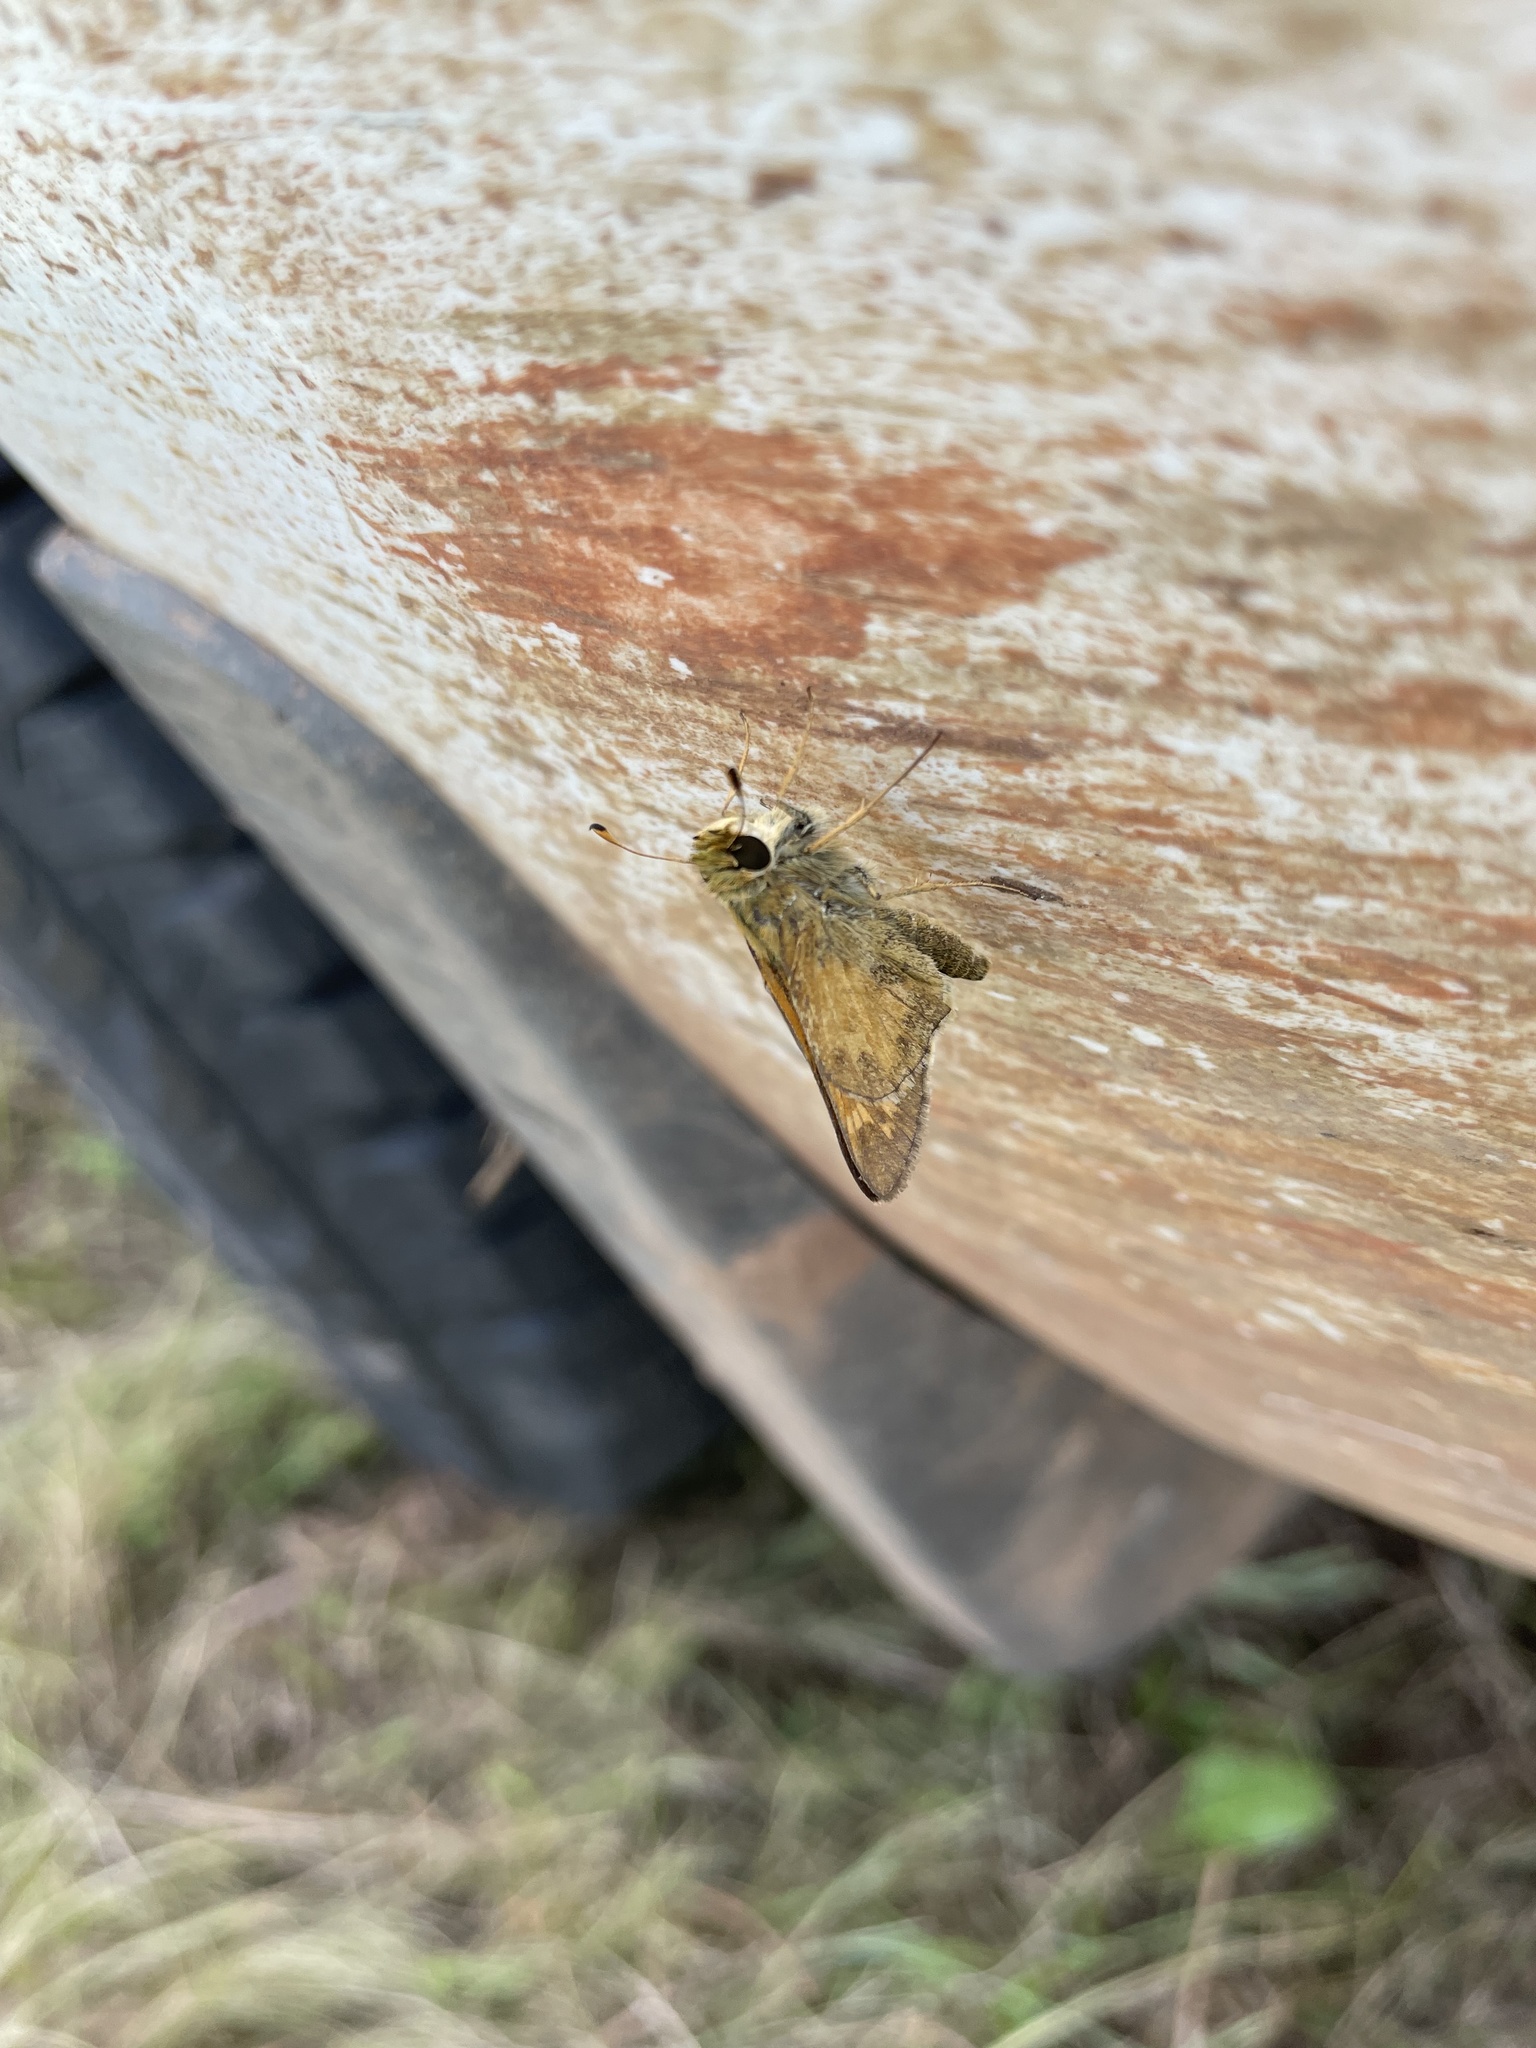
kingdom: Animalia
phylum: Arthropoda
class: Insecta
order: Lepidoptera
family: Hesperiidae
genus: Atalopedes
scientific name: Atalopedes
